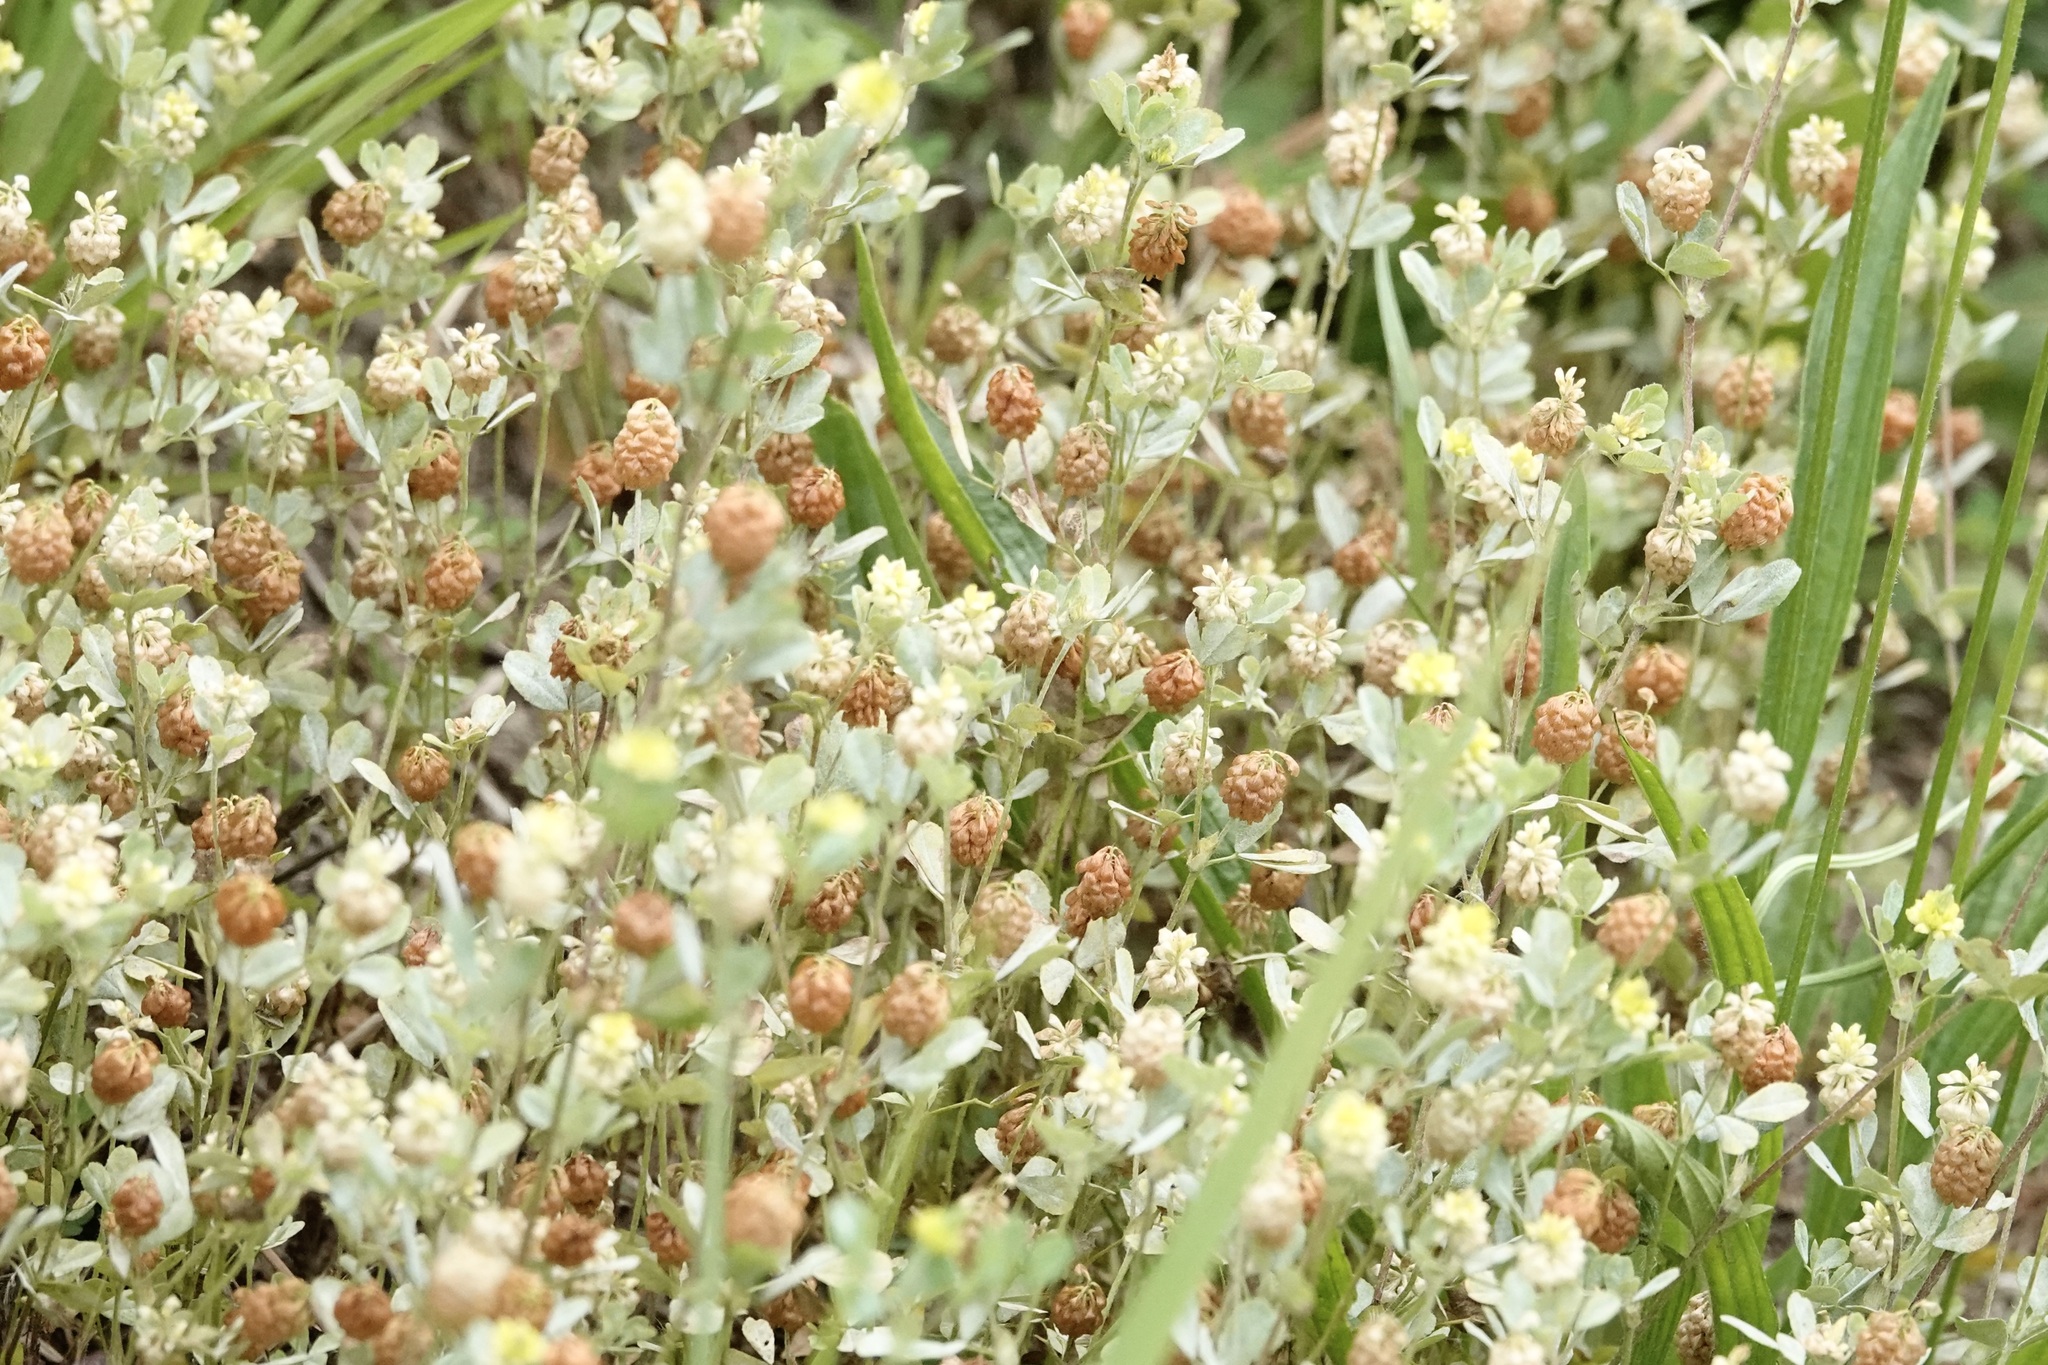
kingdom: Plantae
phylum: Tracheophyta
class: Magnoliopsida
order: Fabales
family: Fabaceae
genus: Trifolium
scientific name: Trifolium campestre
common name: Field clover
